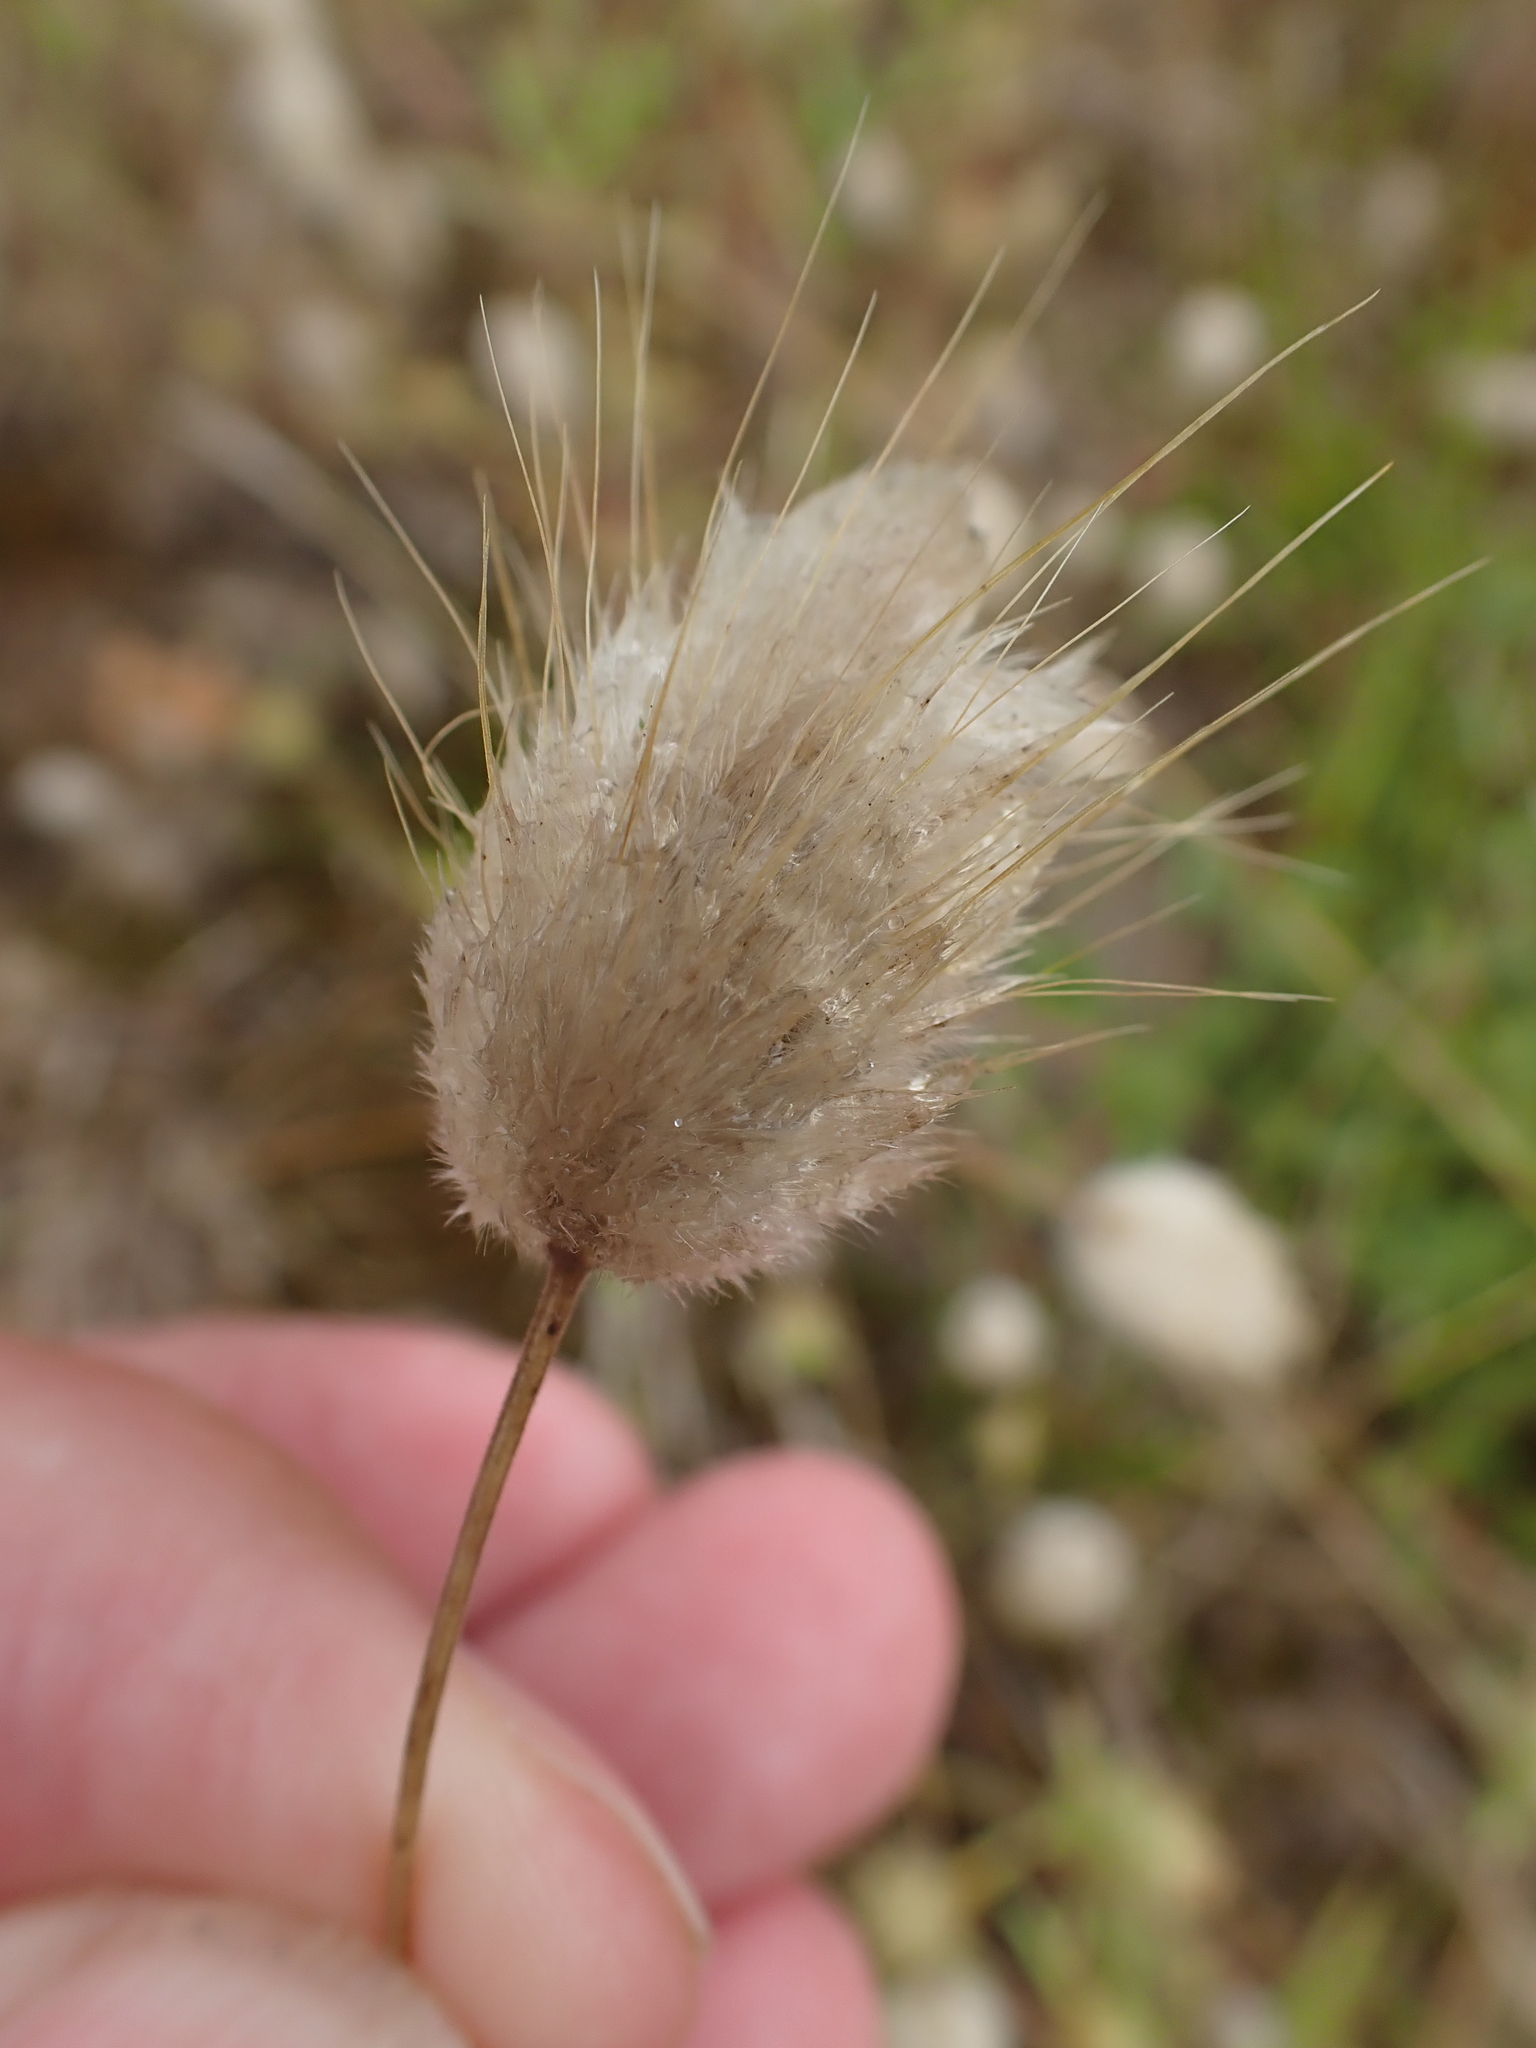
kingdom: Plantae
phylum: Tracheophyta
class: Liliopsida
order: Poales
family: Poaceae
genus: Lagurus
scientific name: Lagurus ovatus
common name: Hare's-tail
